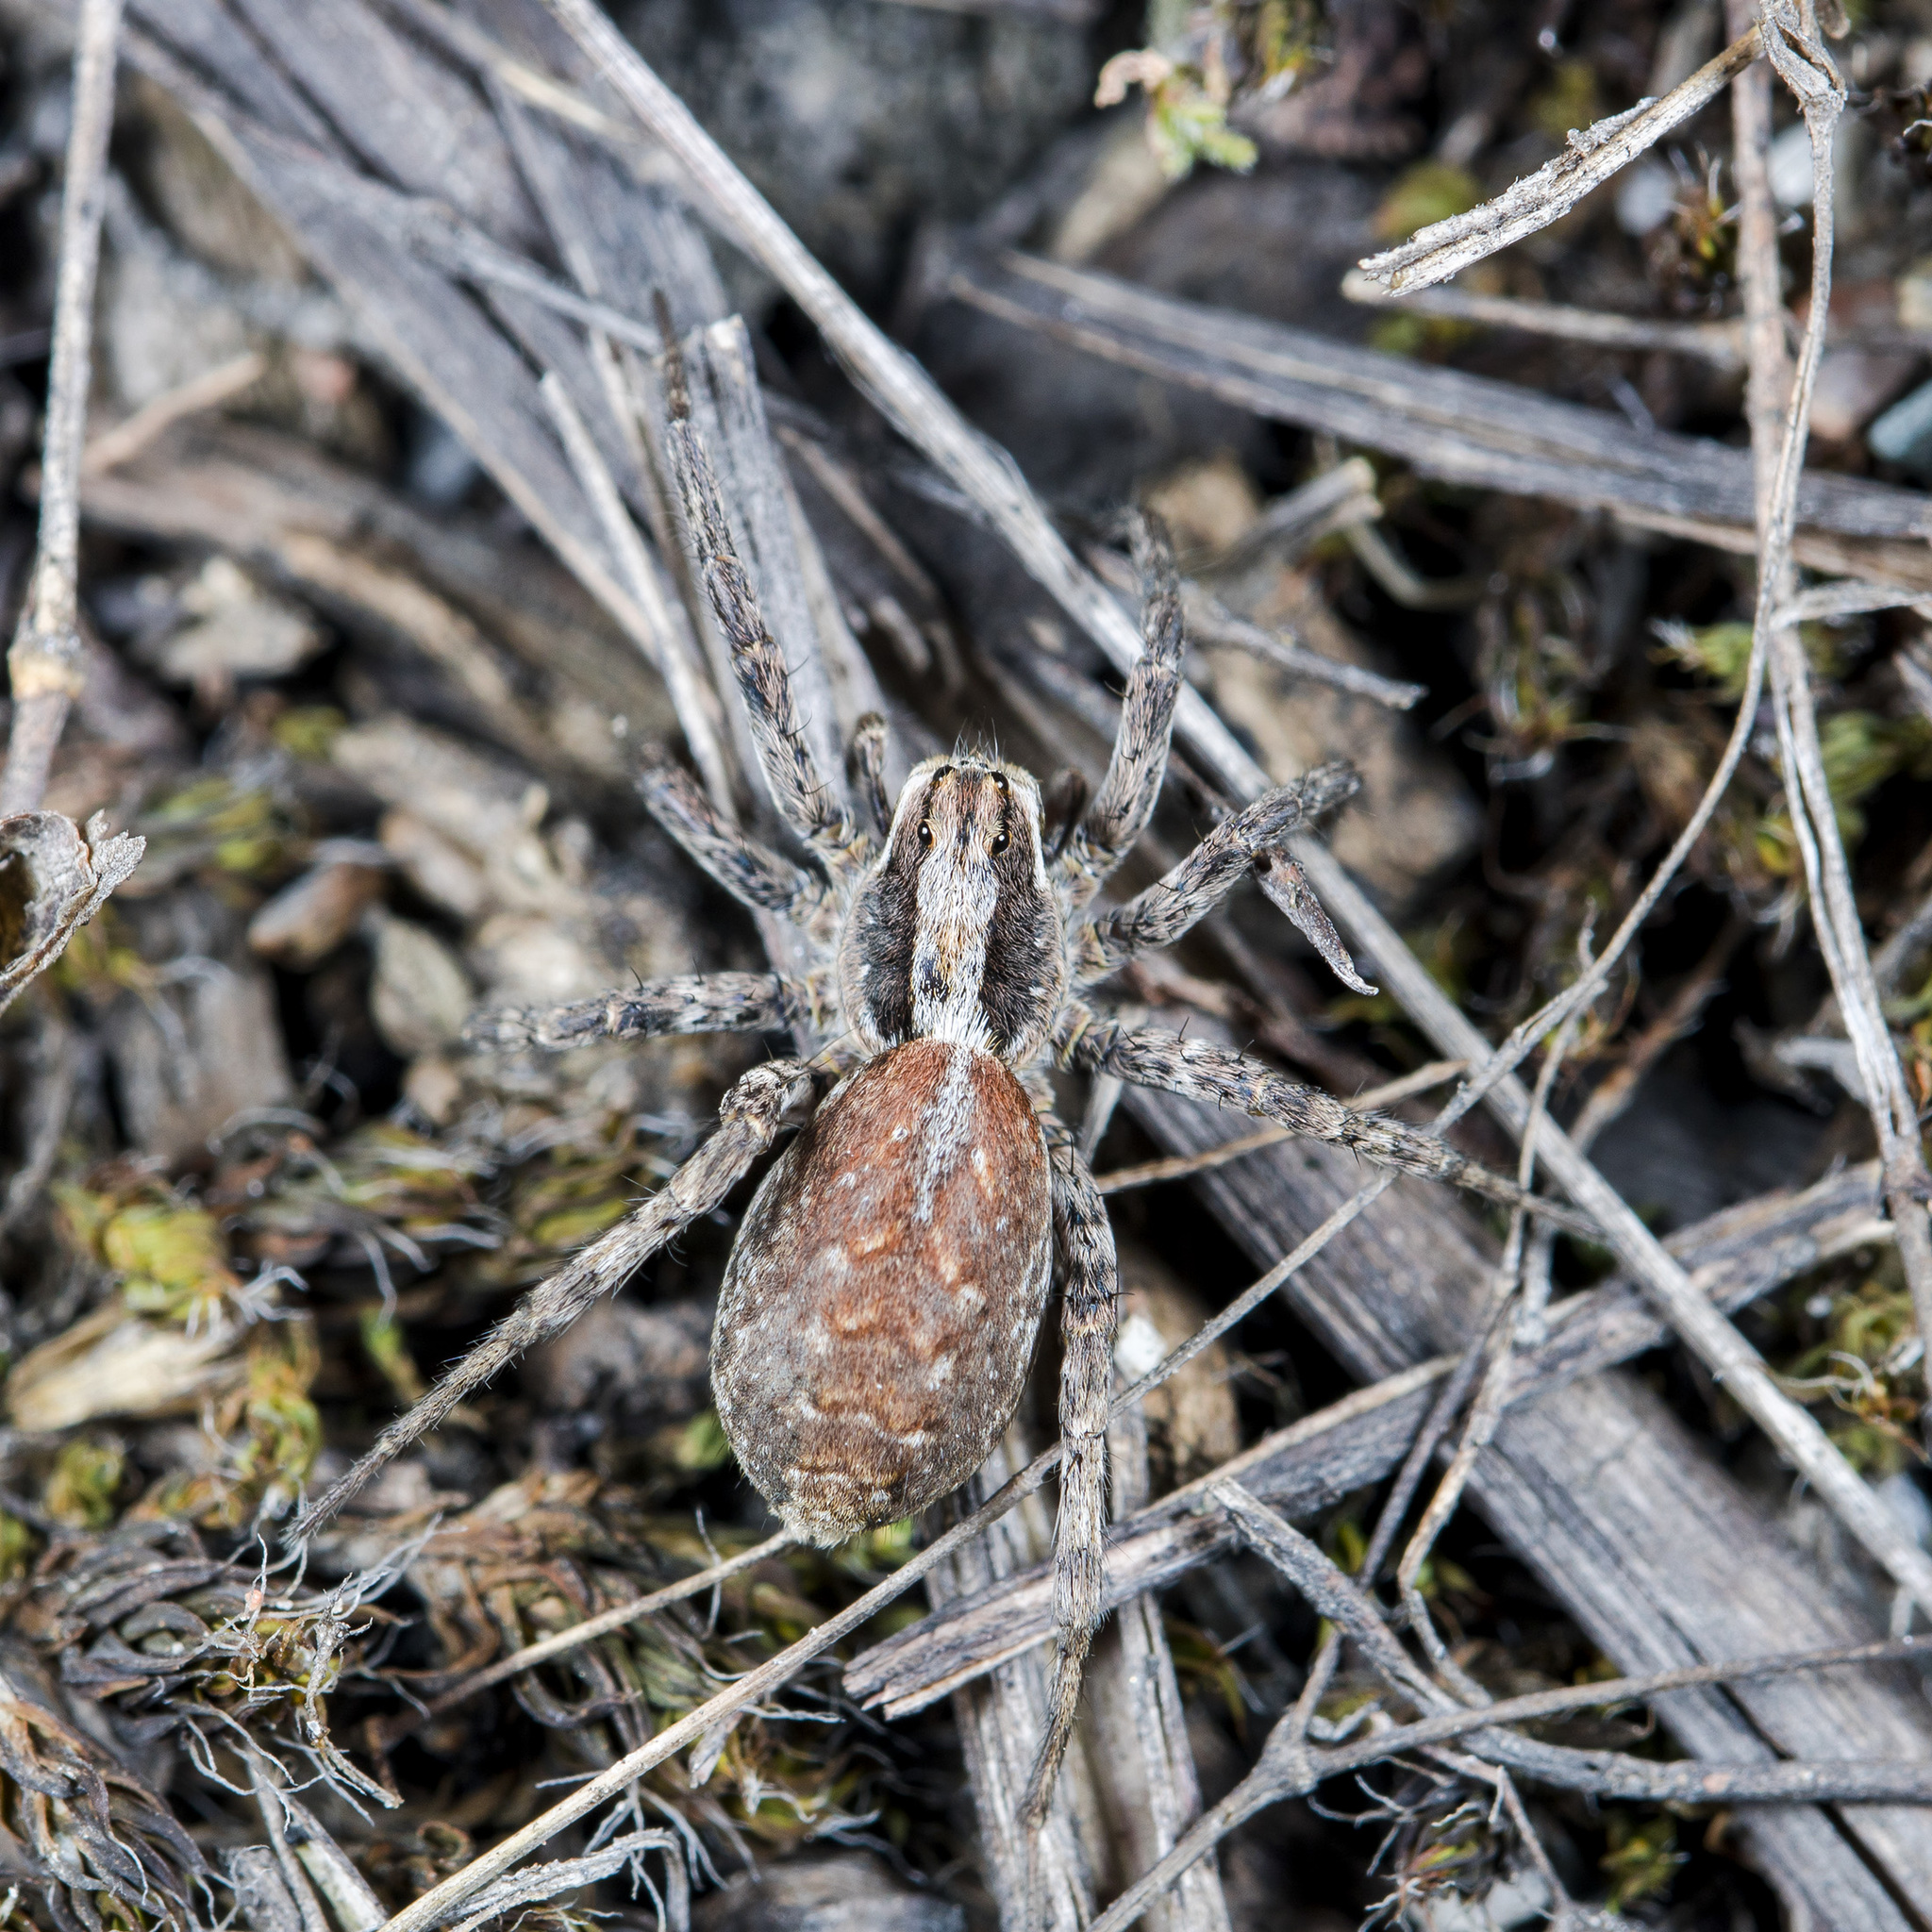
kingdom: Animalia
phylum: Arthropoda
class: Arachnida
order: Araneae
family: Lycosidae
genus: Alopecosa
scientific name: Alopecosa cursor
